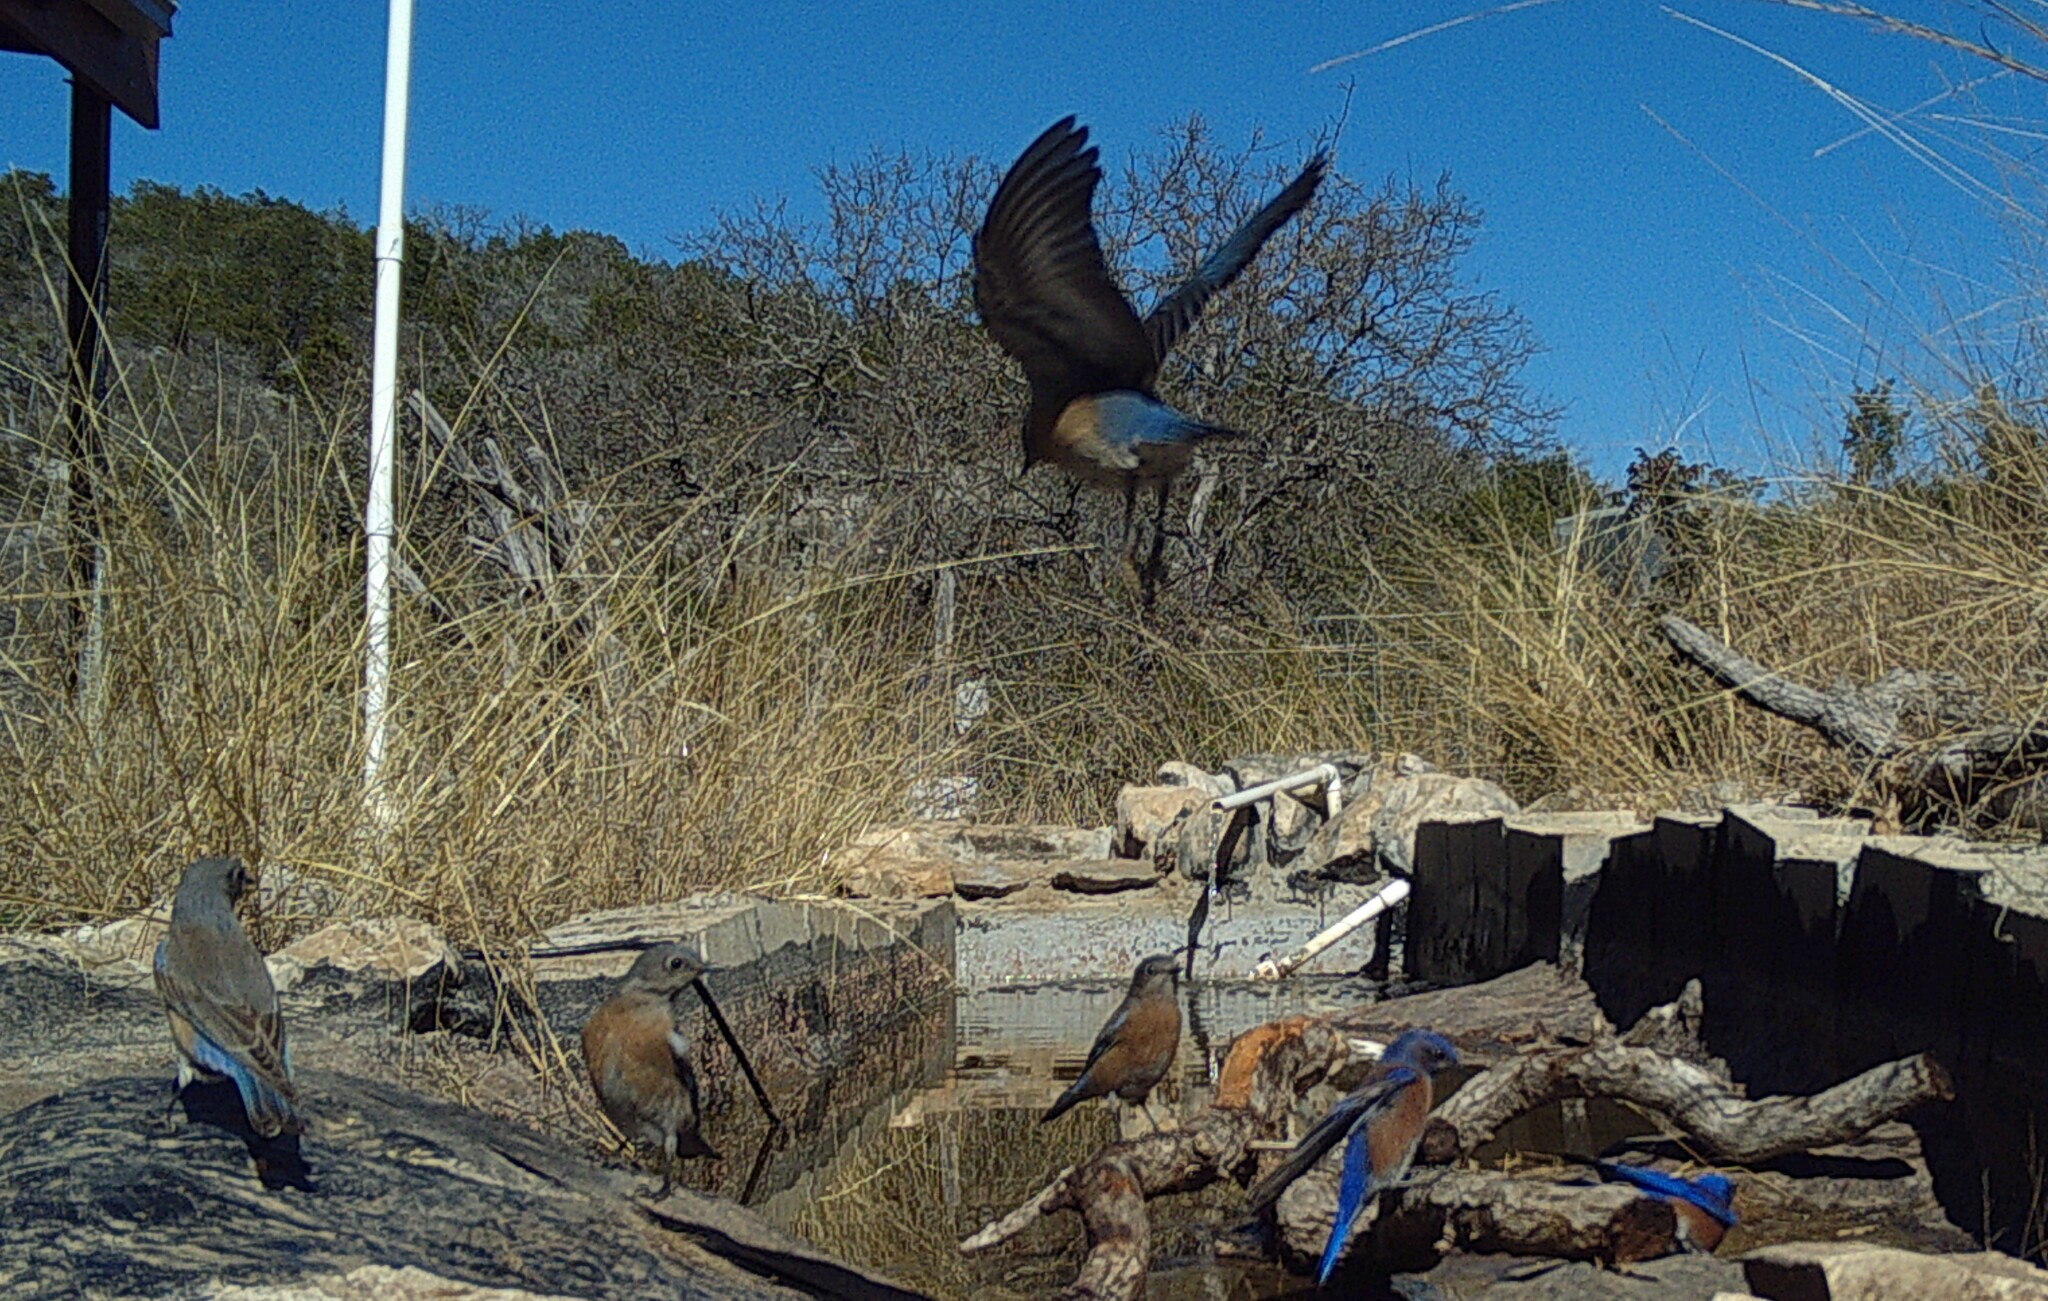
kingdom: Animalia
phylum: Chordata
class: Aves
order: Passeriformes
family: Turdidae
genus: Sialia
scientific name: Sialia sialis
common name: Eastern bluebird
